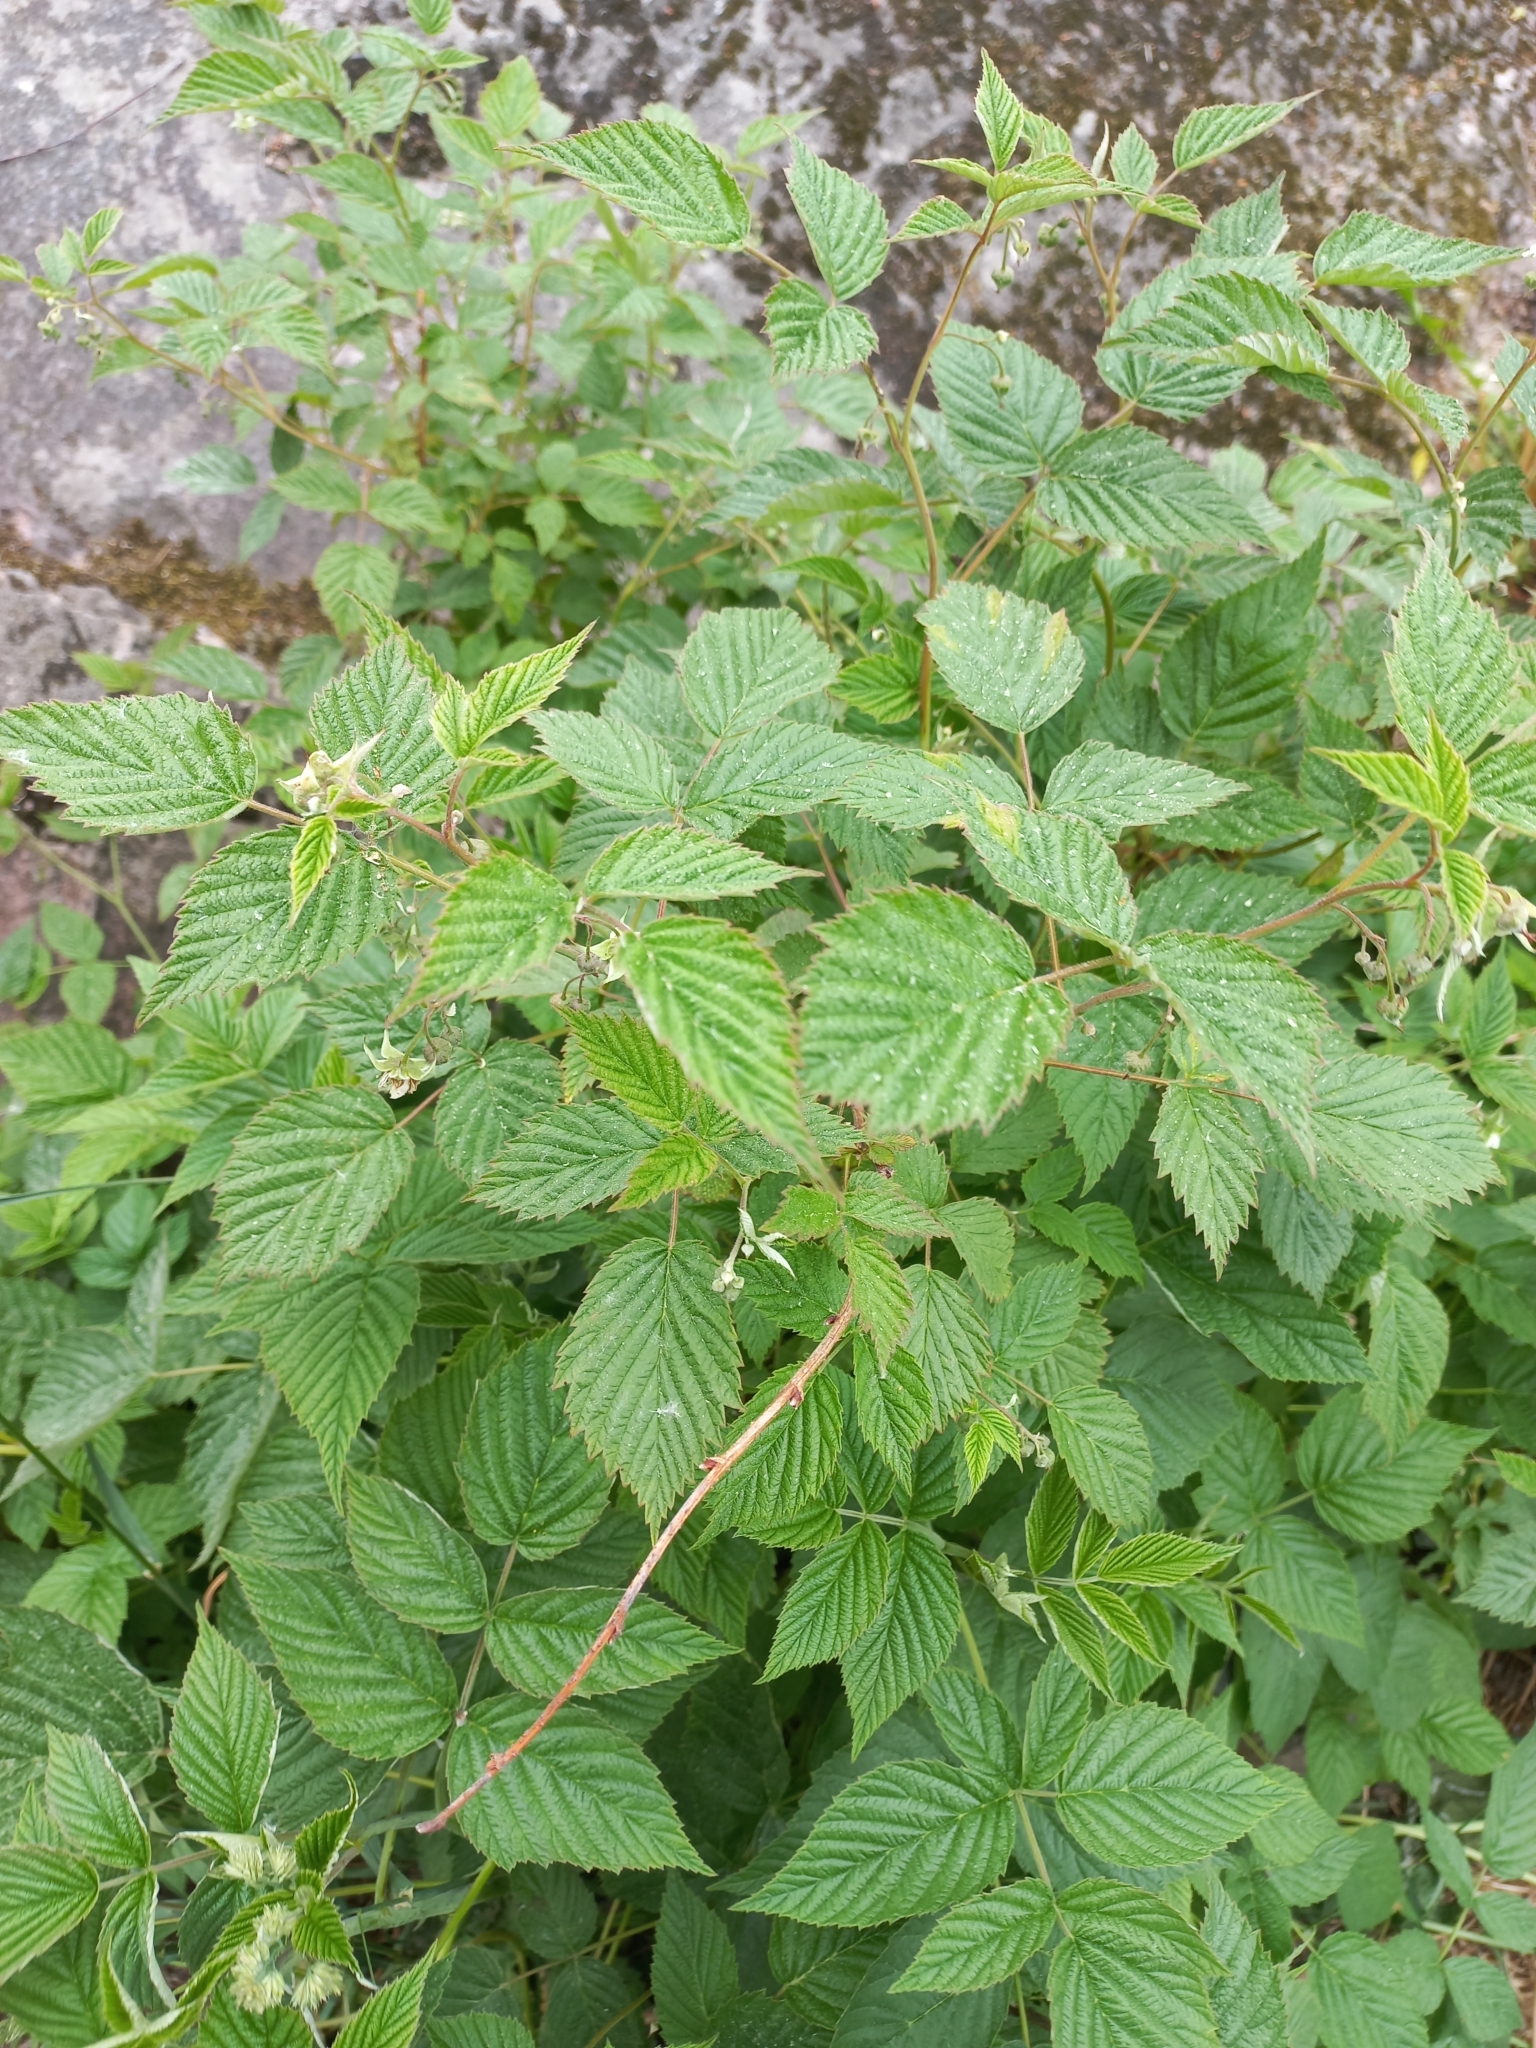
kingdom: Plantae
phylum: Tracheophyta
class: Magnoliopsida
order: Rosales
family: Rosaceae
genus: Rubus
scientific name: Rubus idaeus
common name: Raspberry
